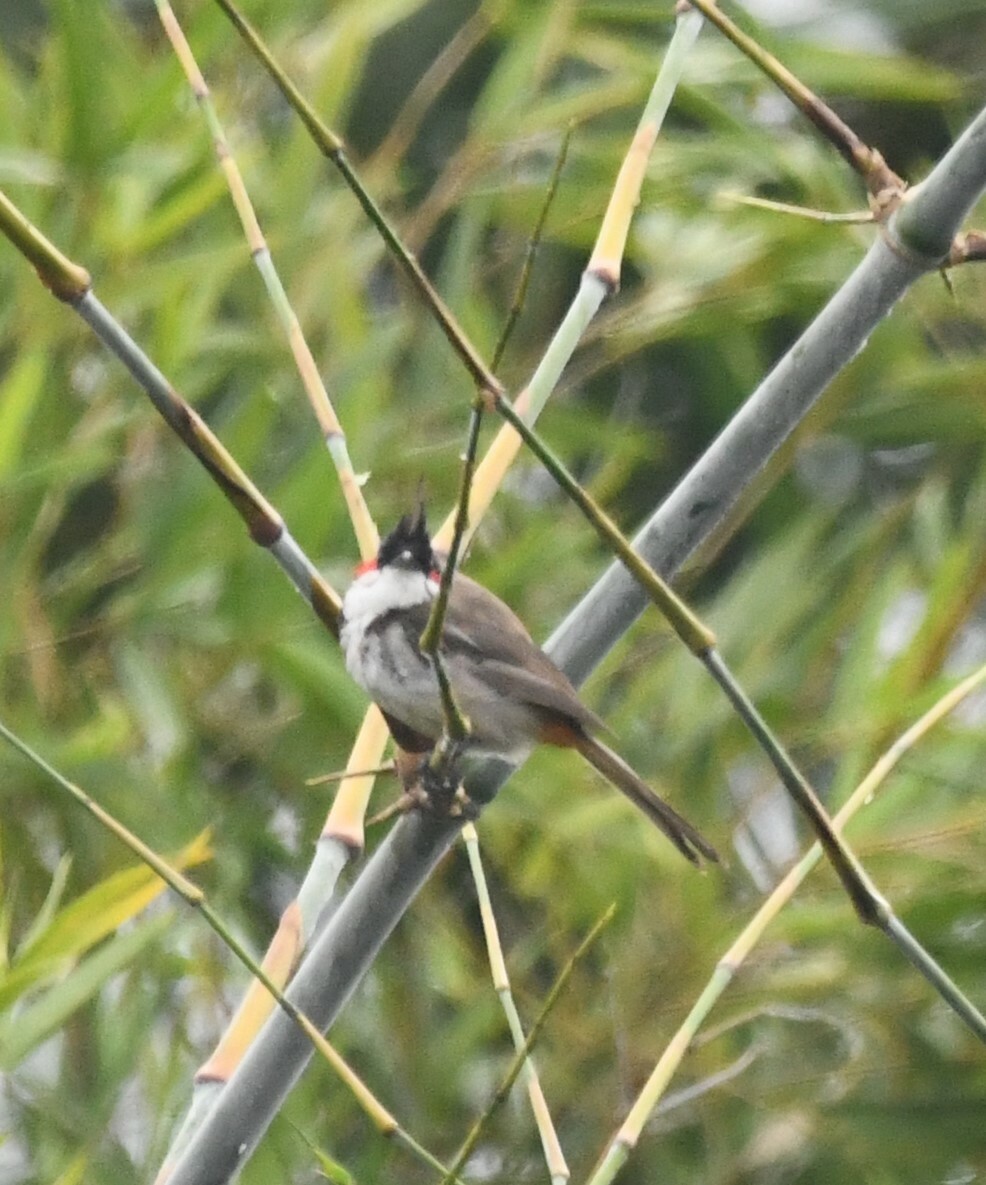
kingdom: Animalia
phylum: Chordata
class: Aves
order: Passeriformes
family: Pycnonotidae
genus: Pycnonotus
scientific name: Pycnonotus jocosus
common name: Red-whiskered bulbul
